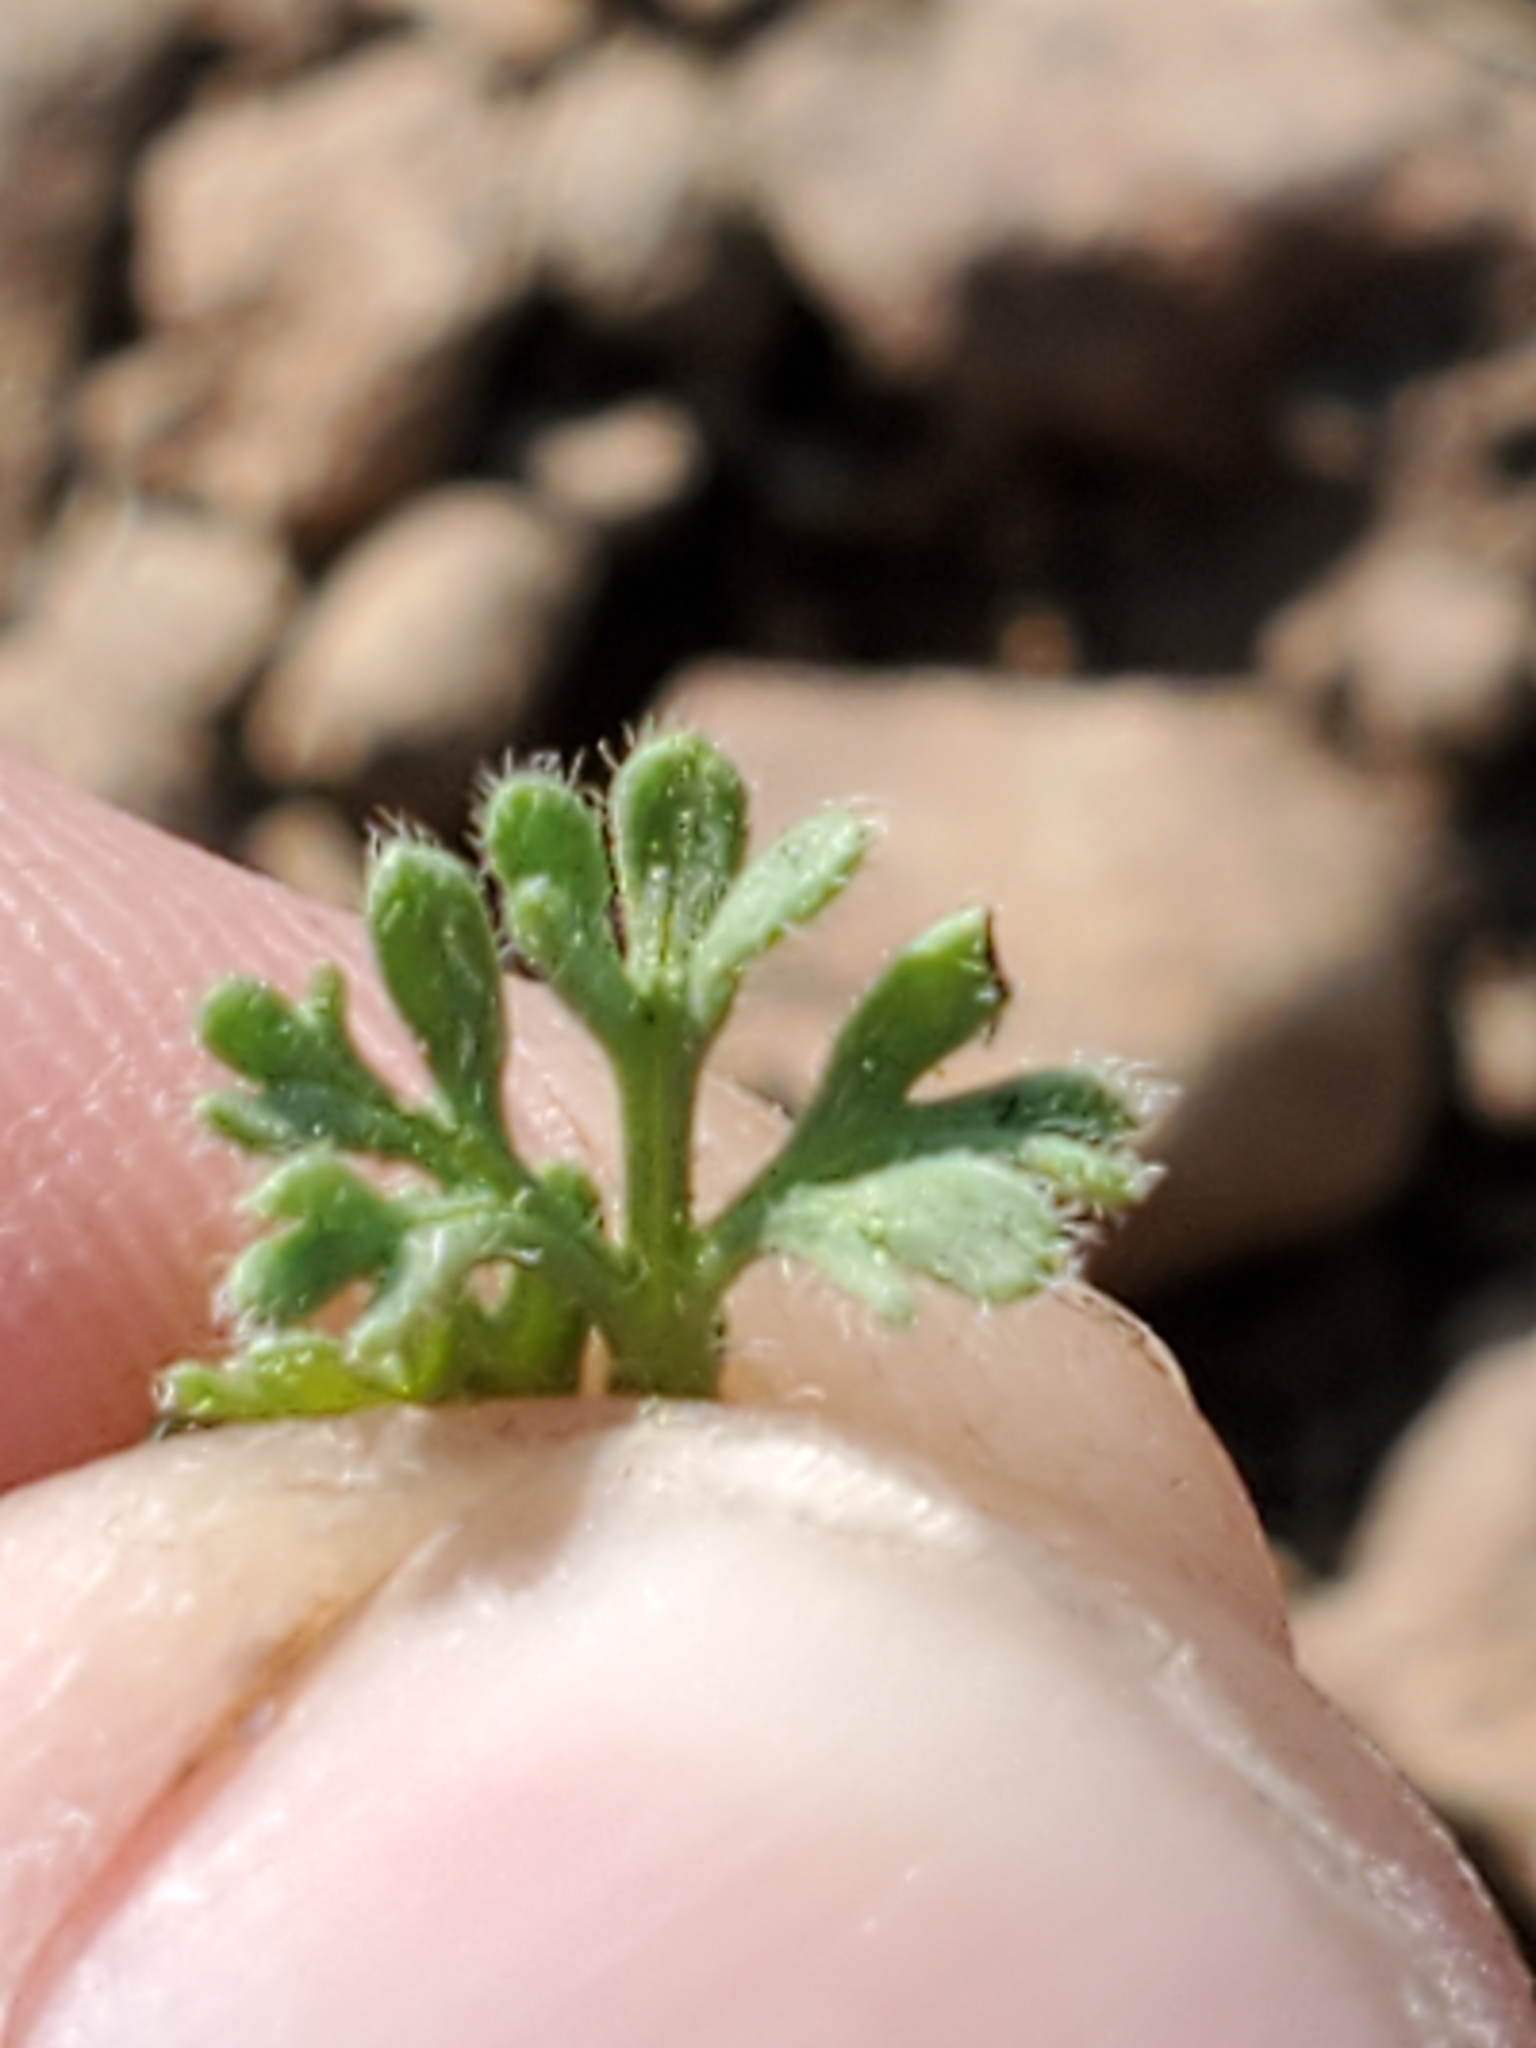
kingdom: Plantae
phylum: Tracheophyta
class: Magnoliopsida
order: Asterales
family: Asteraceae
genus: Erigeron
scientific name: Erigeron compositus
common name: Dwarf mountain fleabane
